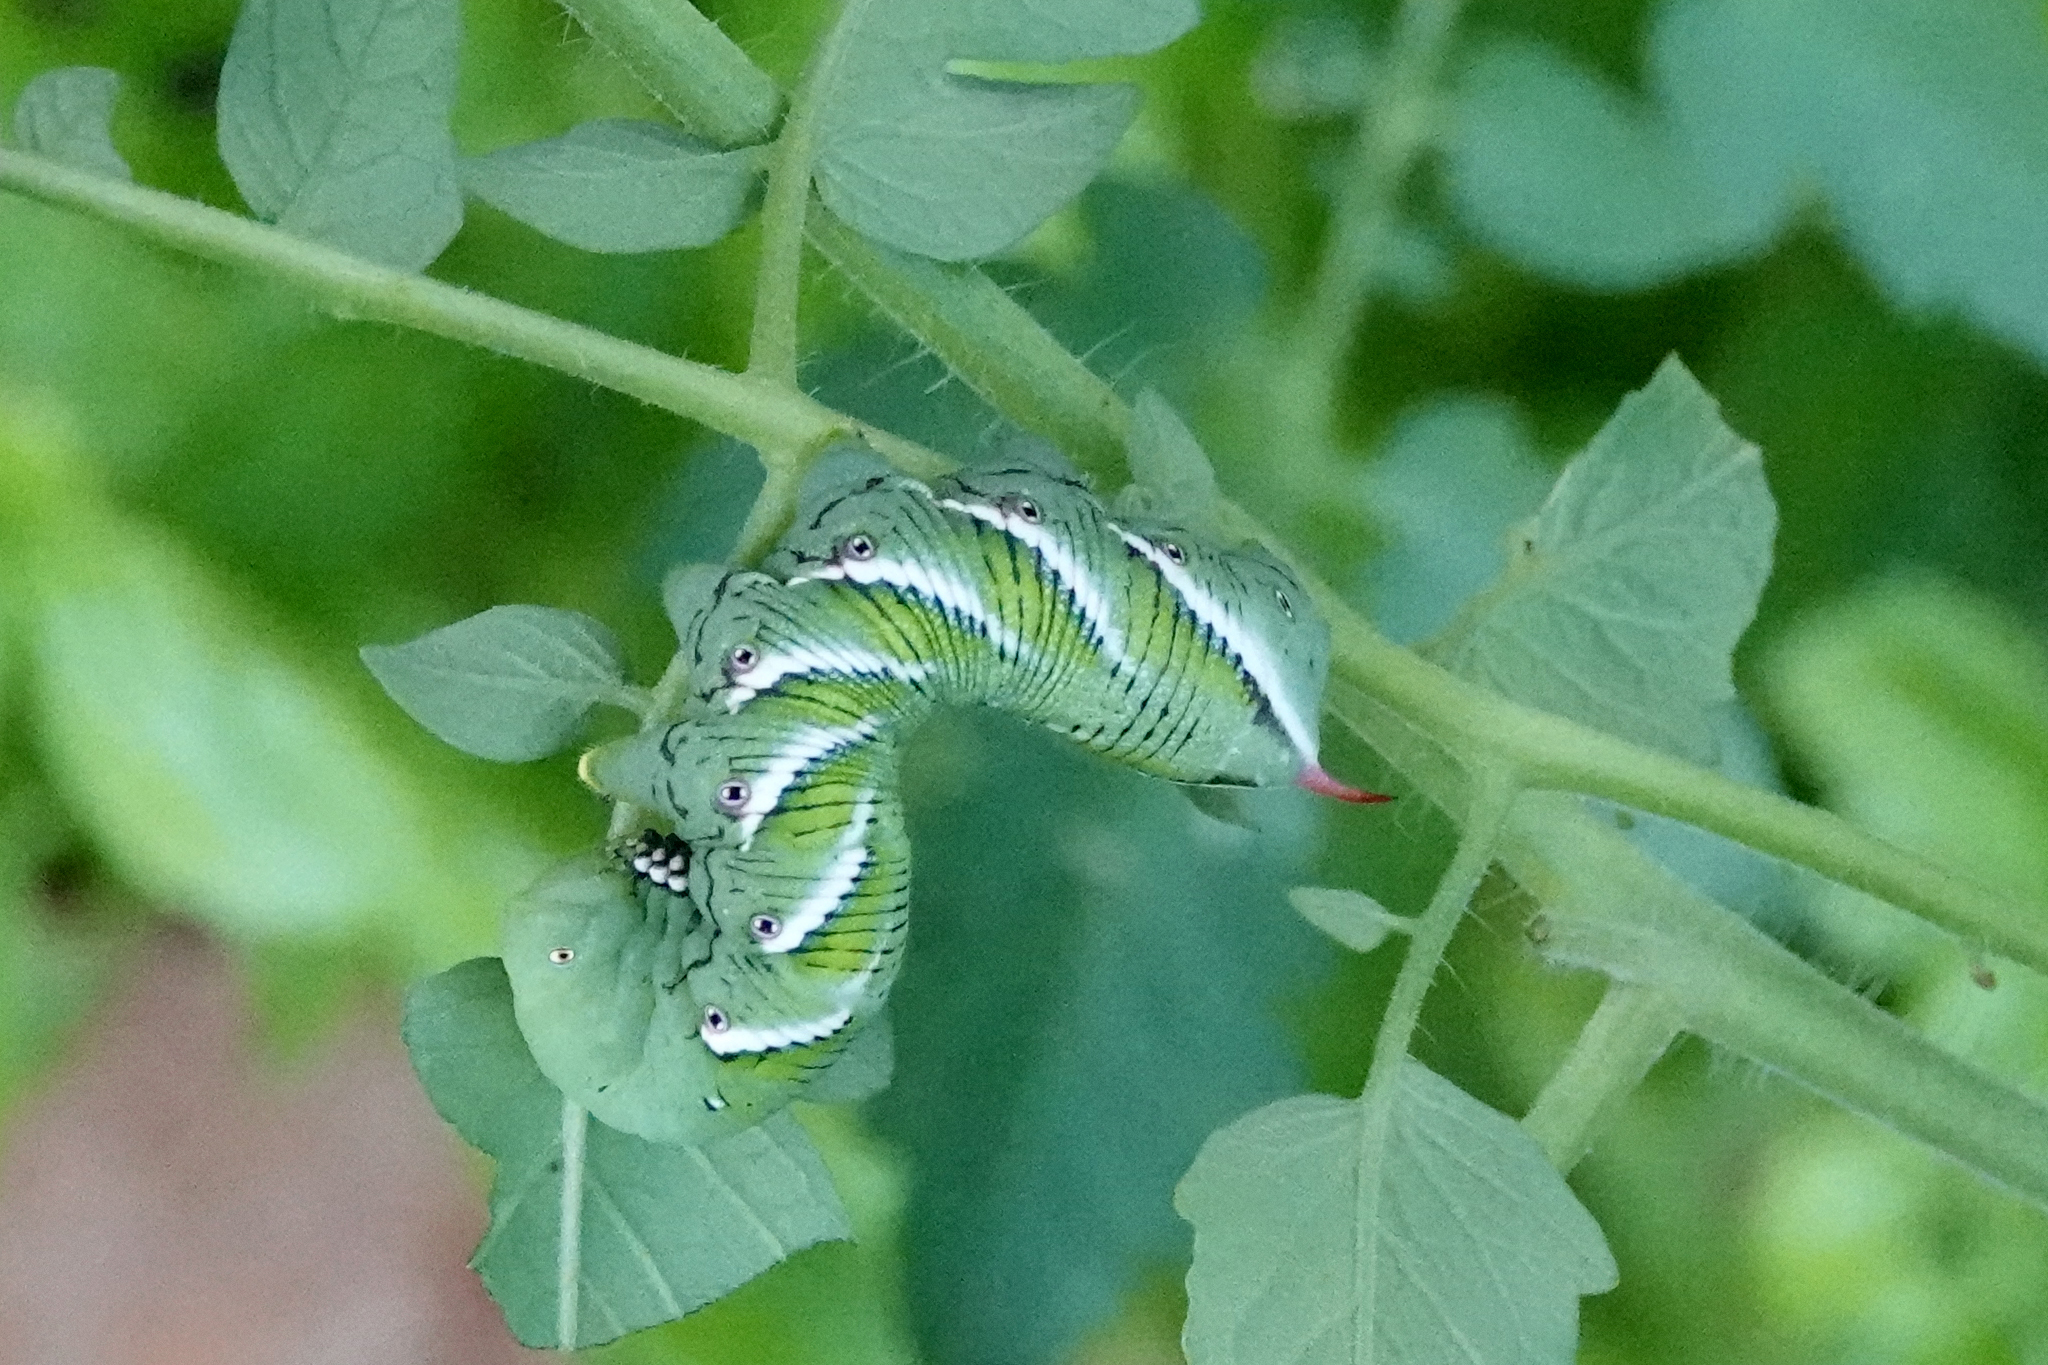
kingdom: Animalia
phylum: Arthropoda
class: Insecta
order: Lepidoptera
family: Sphingidae
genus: Manduca
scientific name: Manduca sexta
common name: Carolina sphinx
